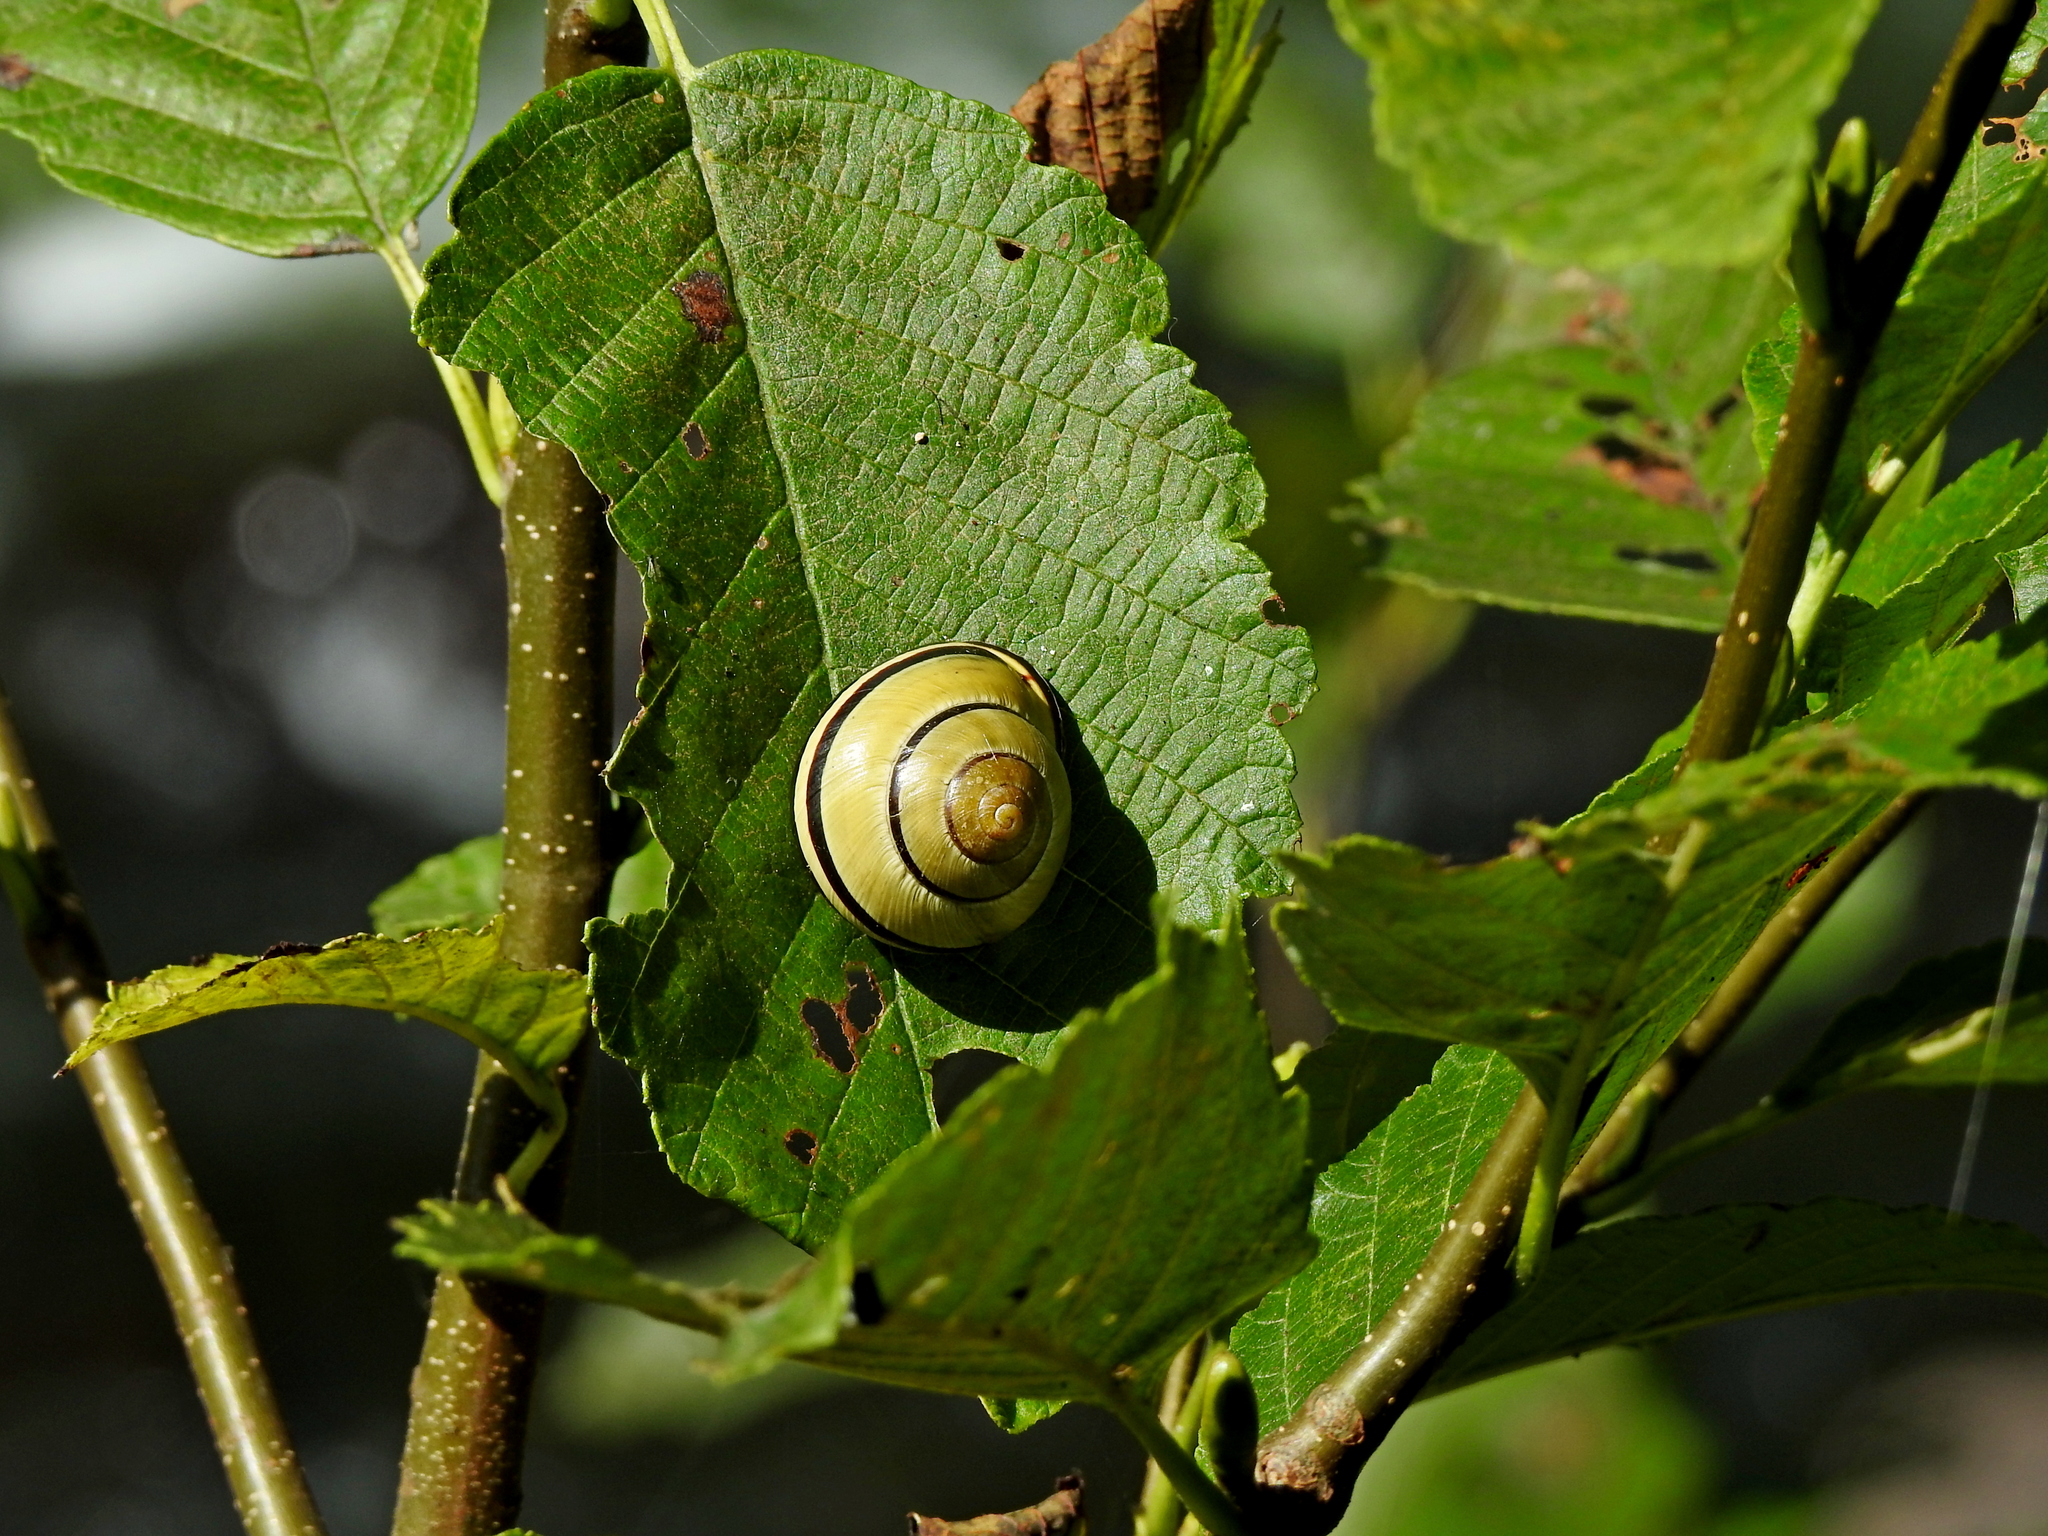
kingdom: Animalia
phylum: Mollusca
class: Gastropoda
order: Stylommatophora
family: Helicidae
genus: Cepaea
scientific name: Cepaea nemoralis
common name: Grovesnail
